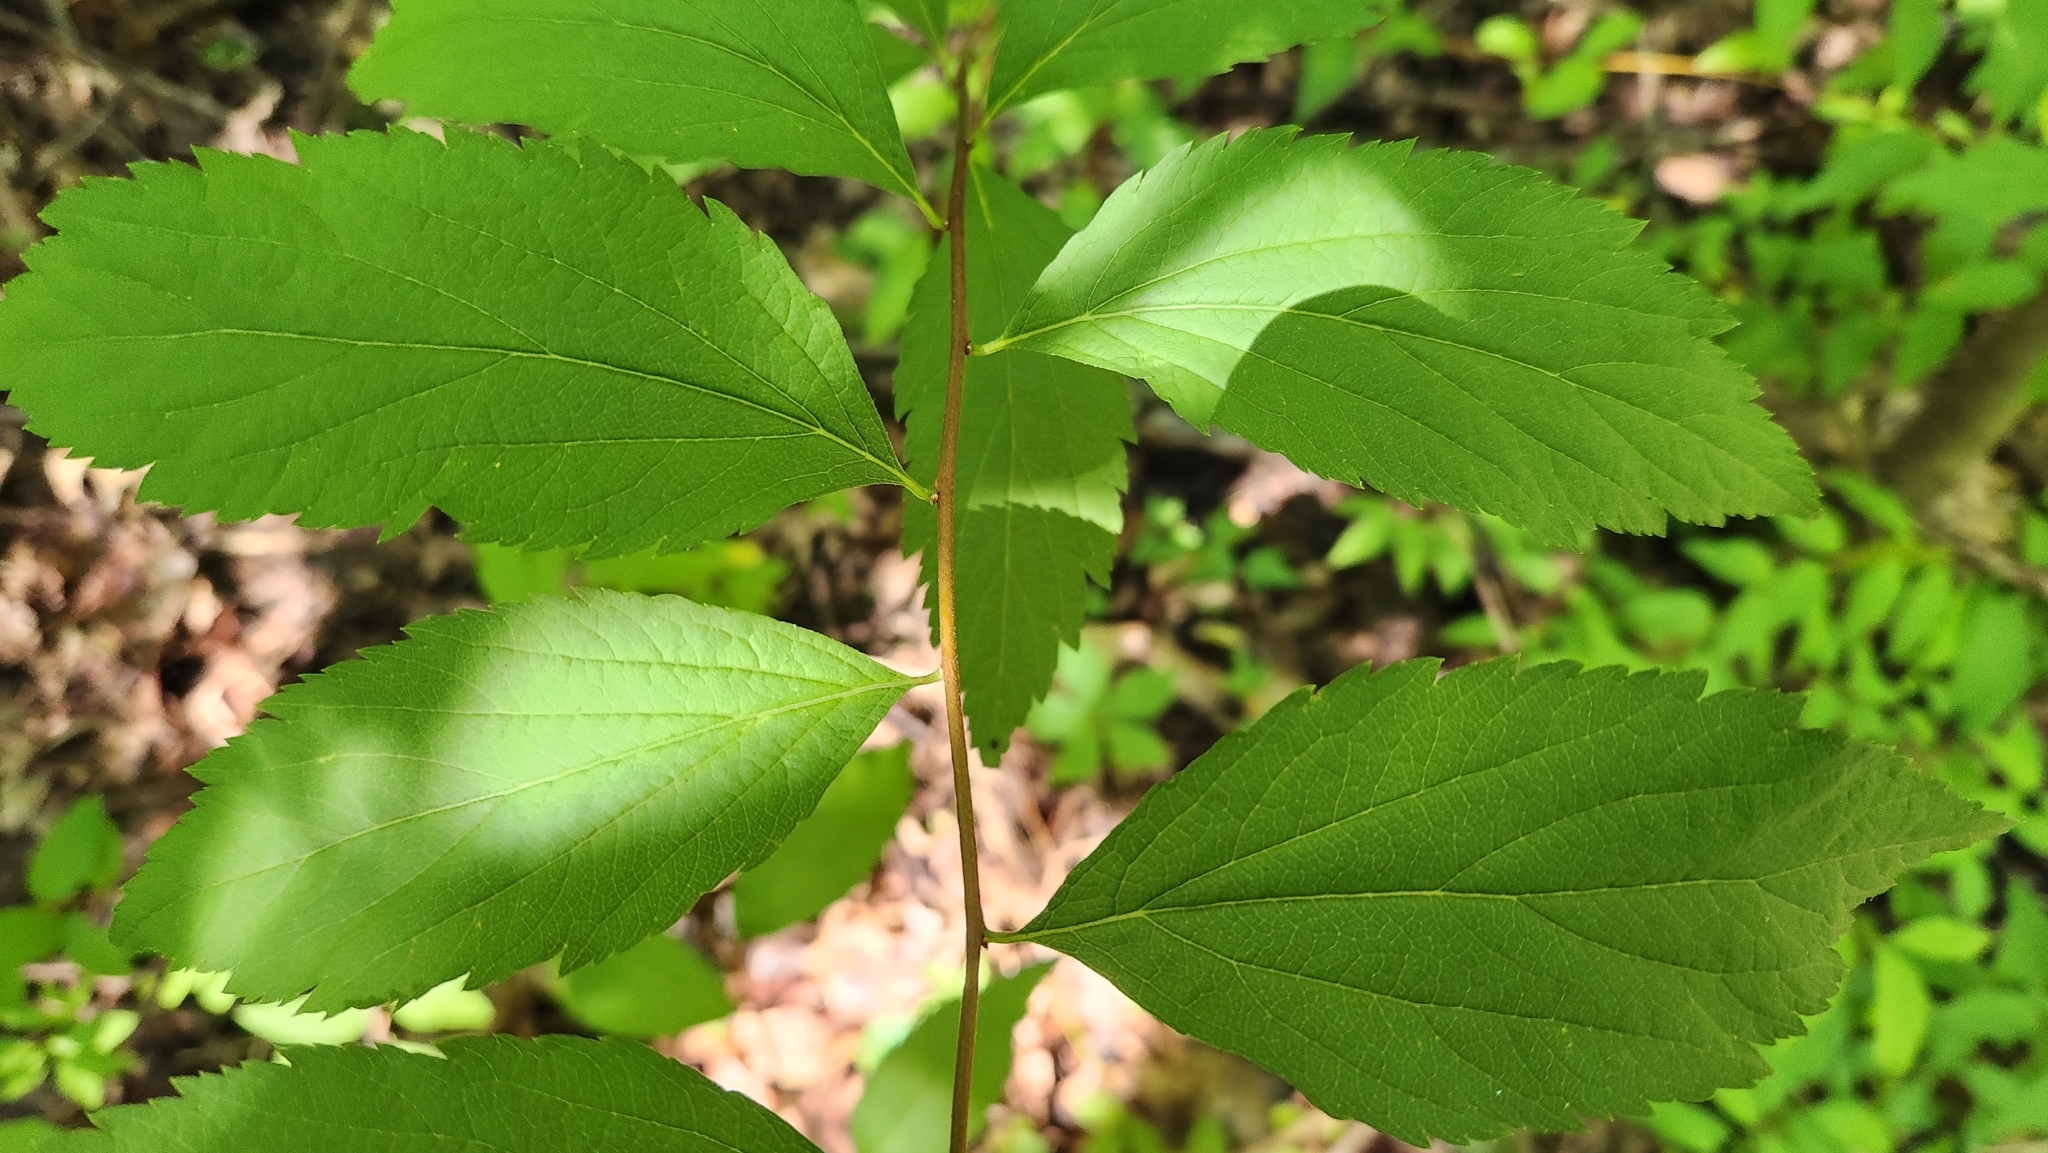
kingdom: Plantae
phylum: Tracheophyta
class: Magnoliopsida
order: Rosales
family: Rosaceae
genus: Spiraea
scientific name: Spiraea japonica
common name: Japanese spiraea
